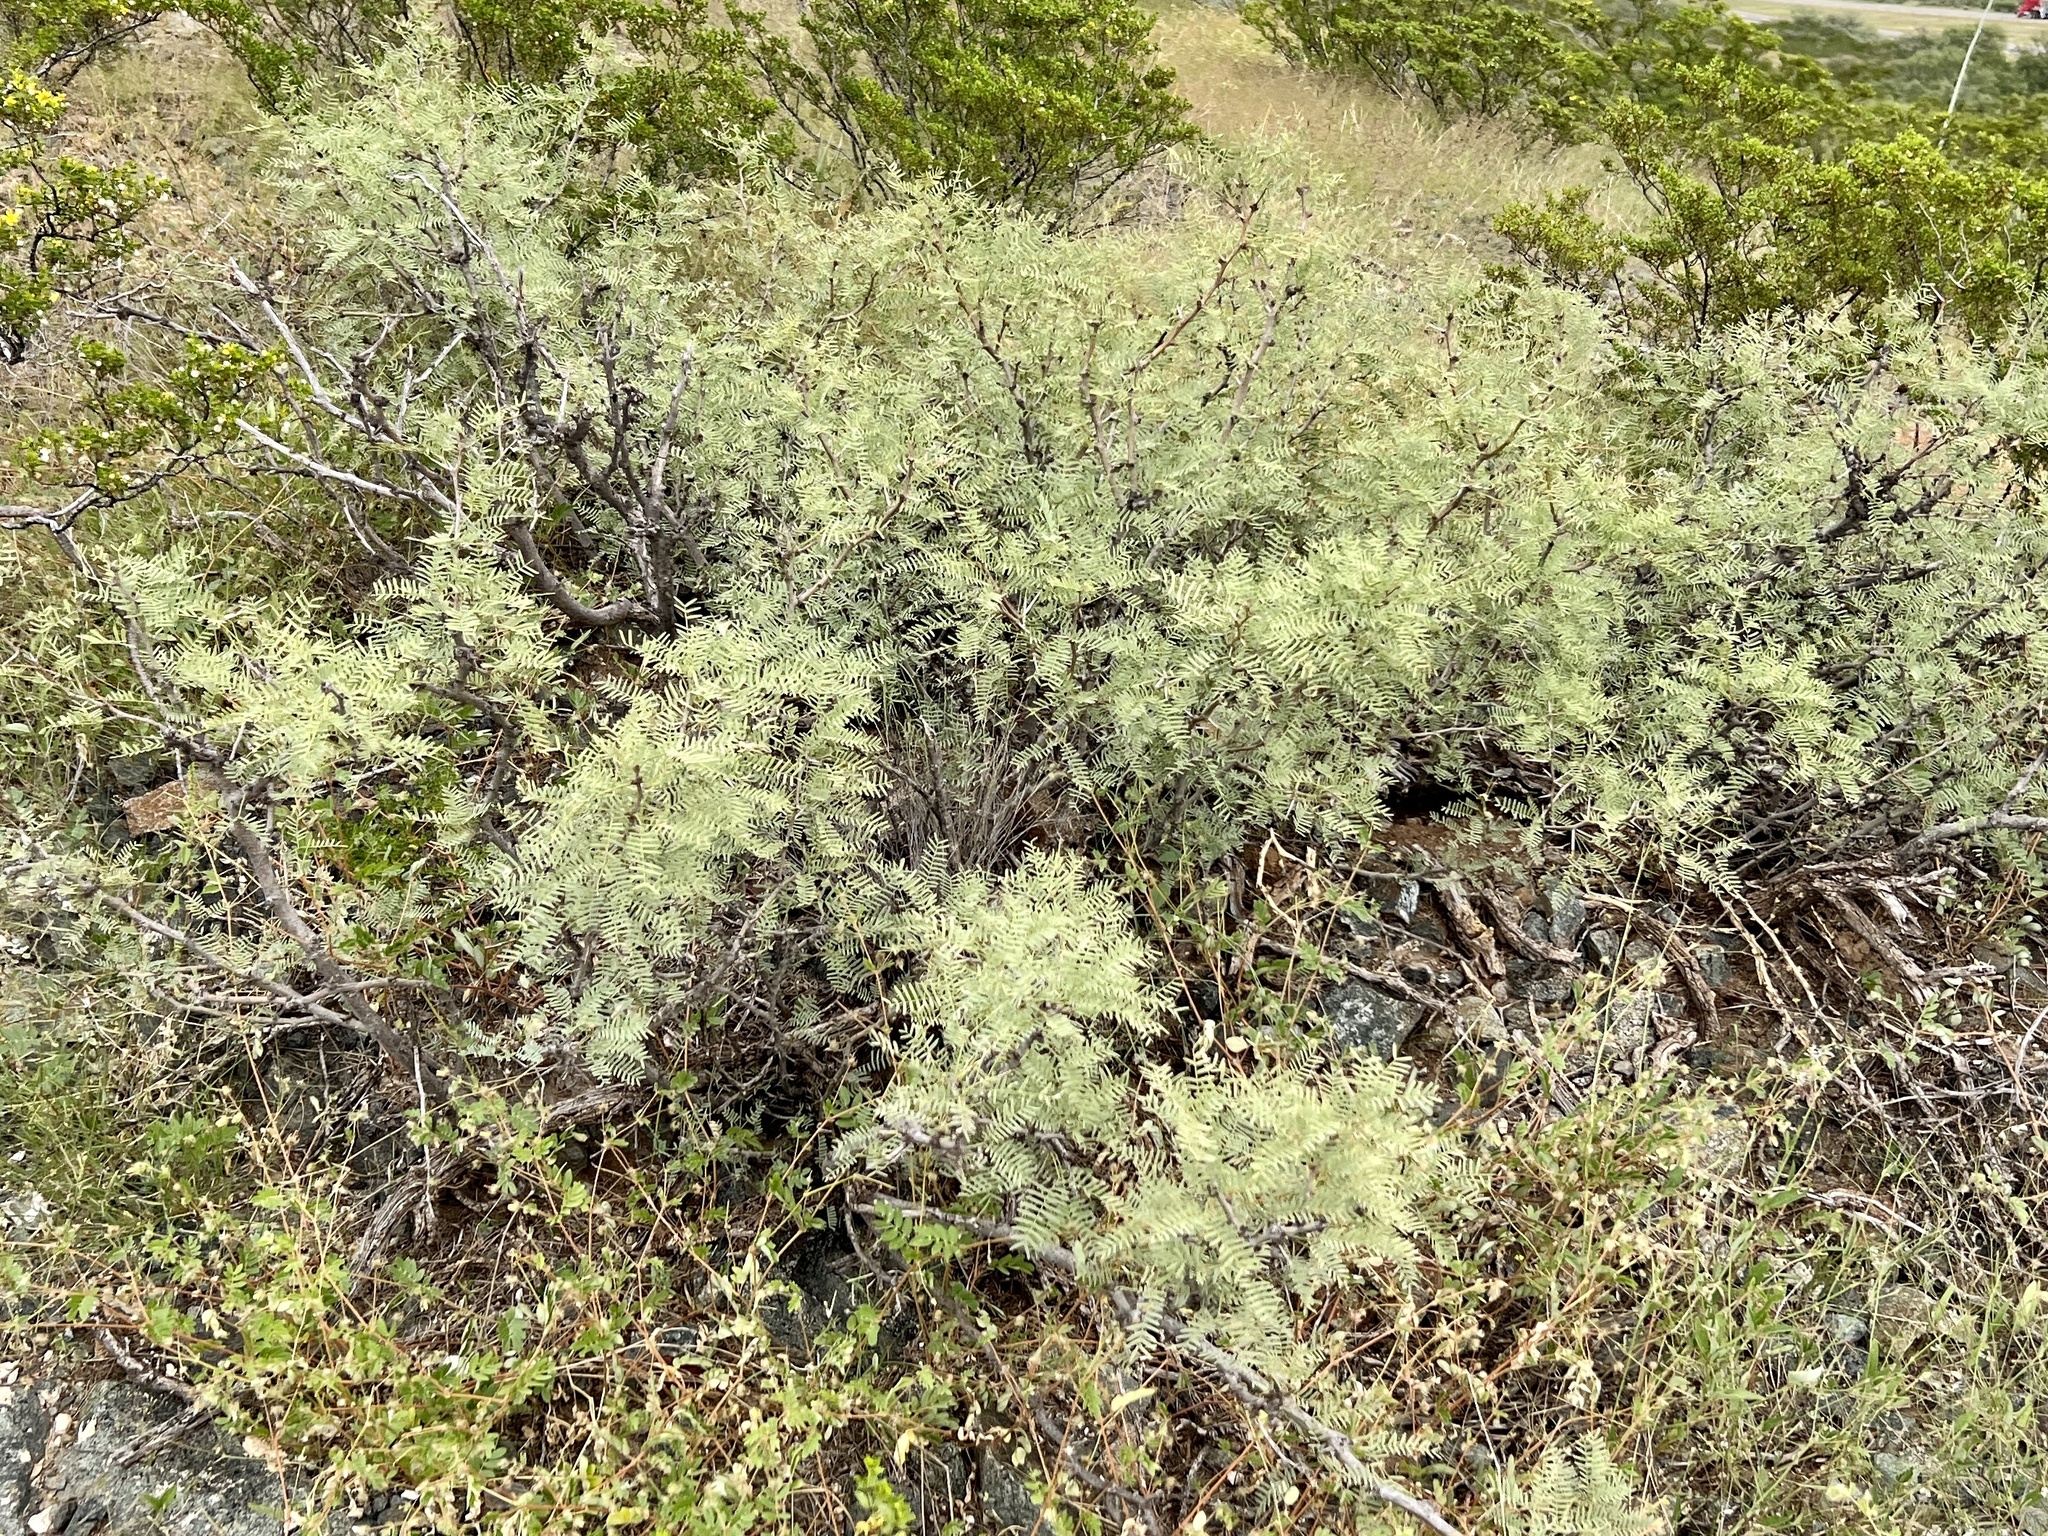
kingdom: Plantae
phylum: Tracheophyta
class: Magnoliopsida
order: Fabales
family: Fabaceae
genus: Prosopis
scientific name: Prosopis pubescens
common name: Screw-bean
